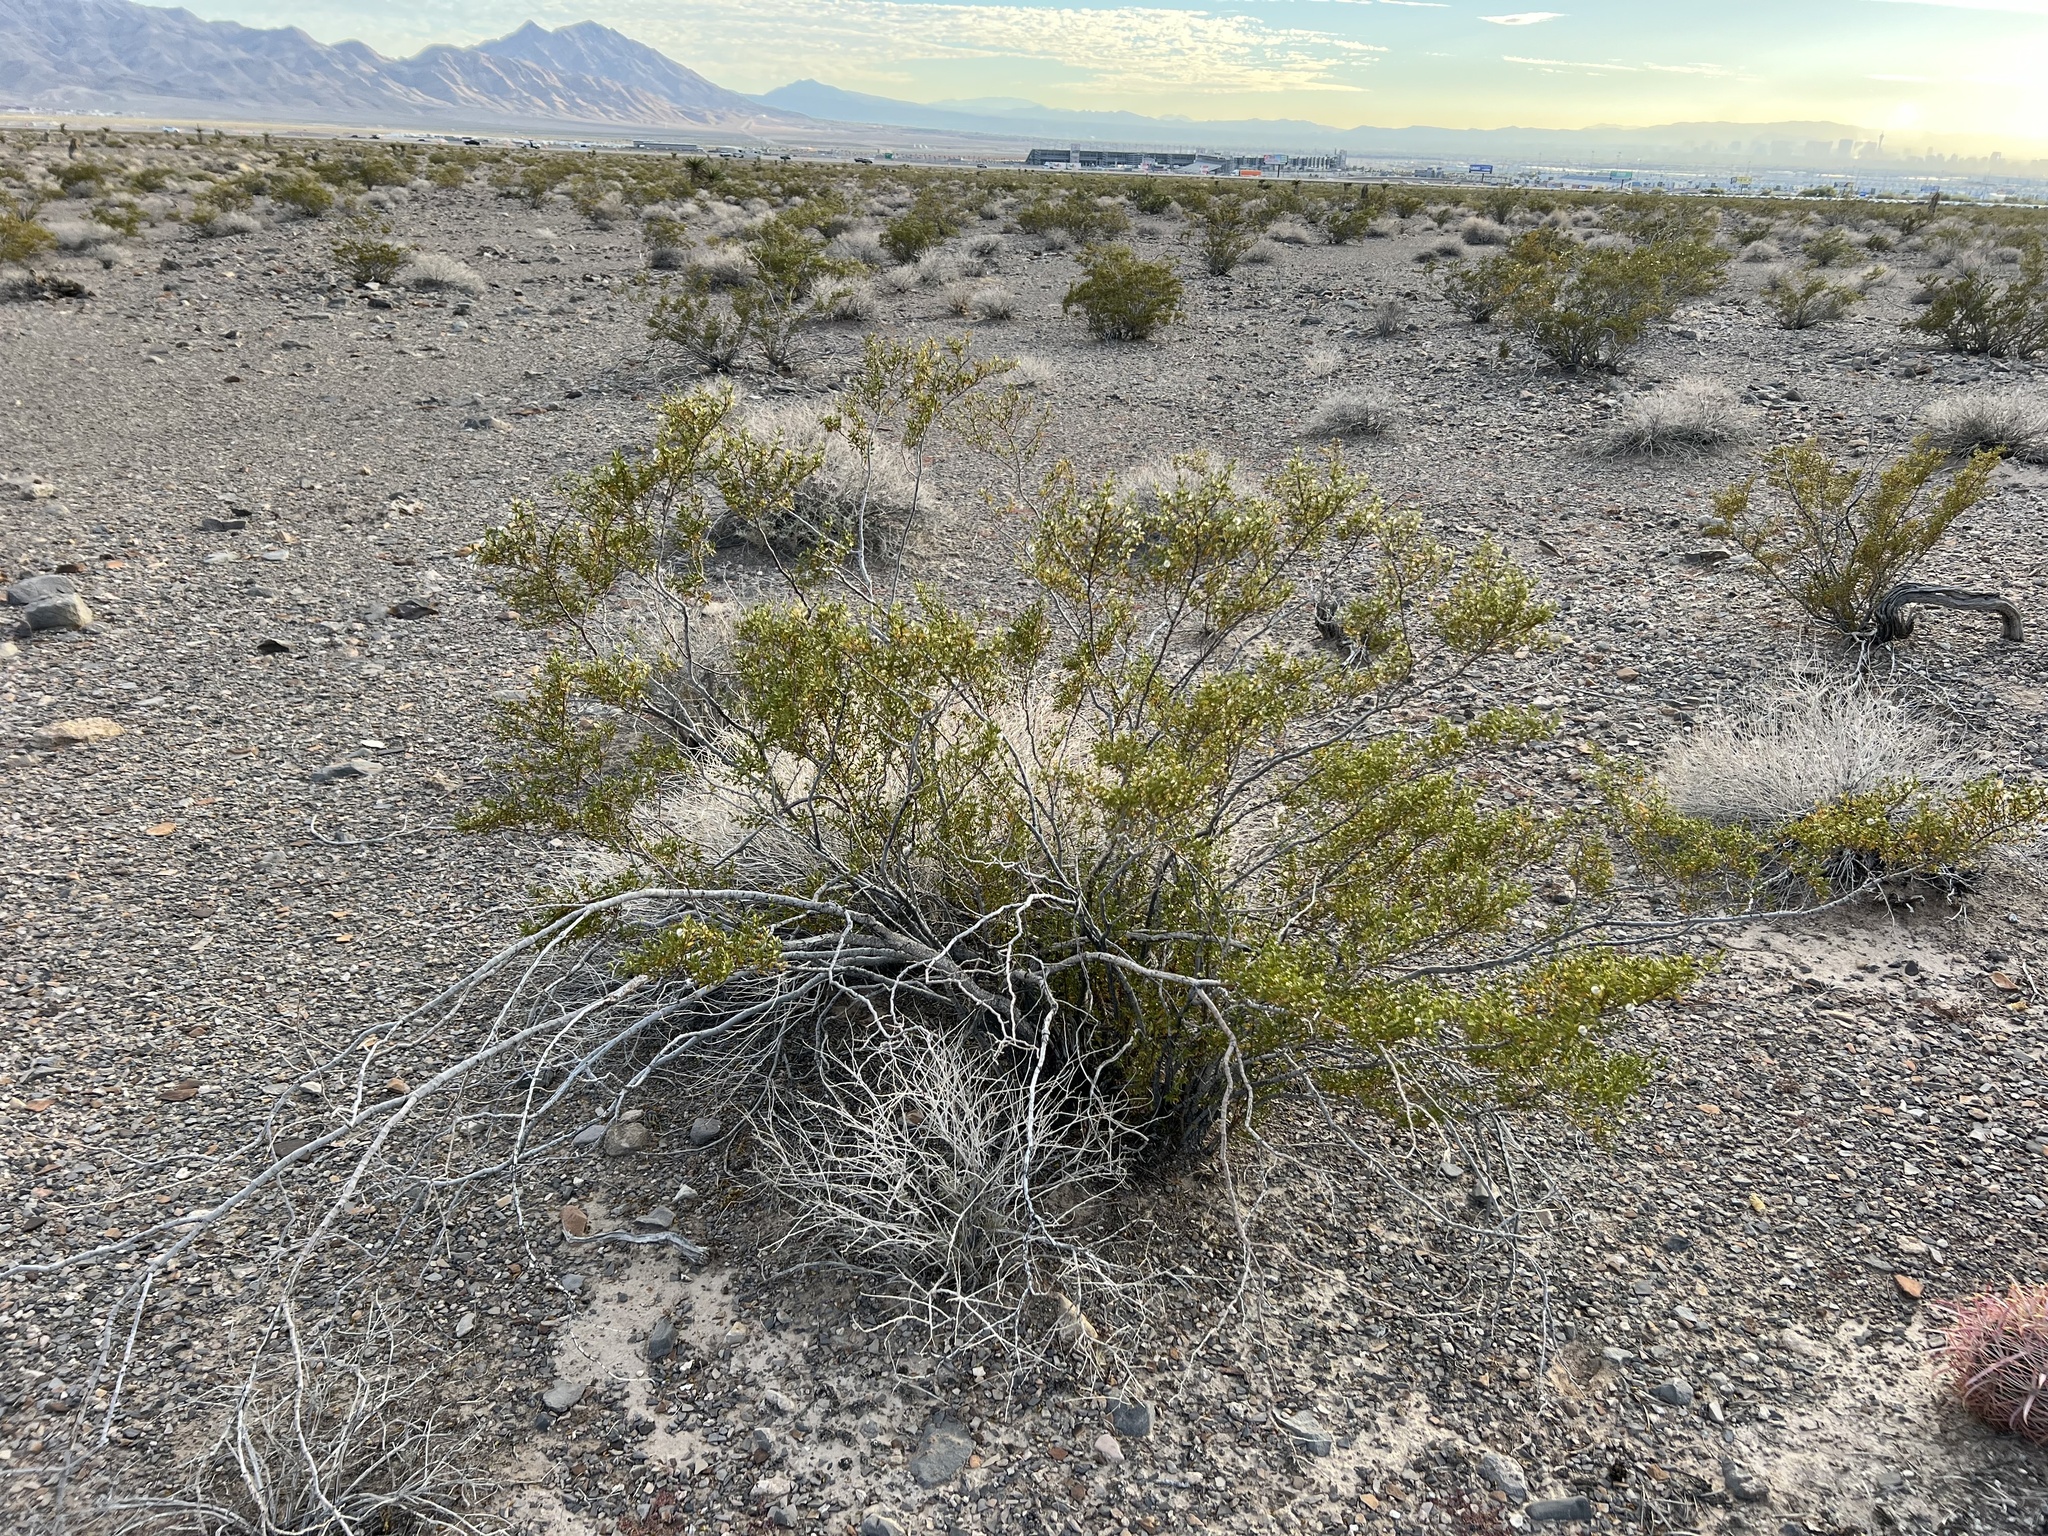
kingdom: Plantae
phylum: Tracheophyta
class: Magnoliopsida
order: Zygophyllales
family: Zygophyllaceae
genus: Larrea
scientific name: Larrea tridentata
